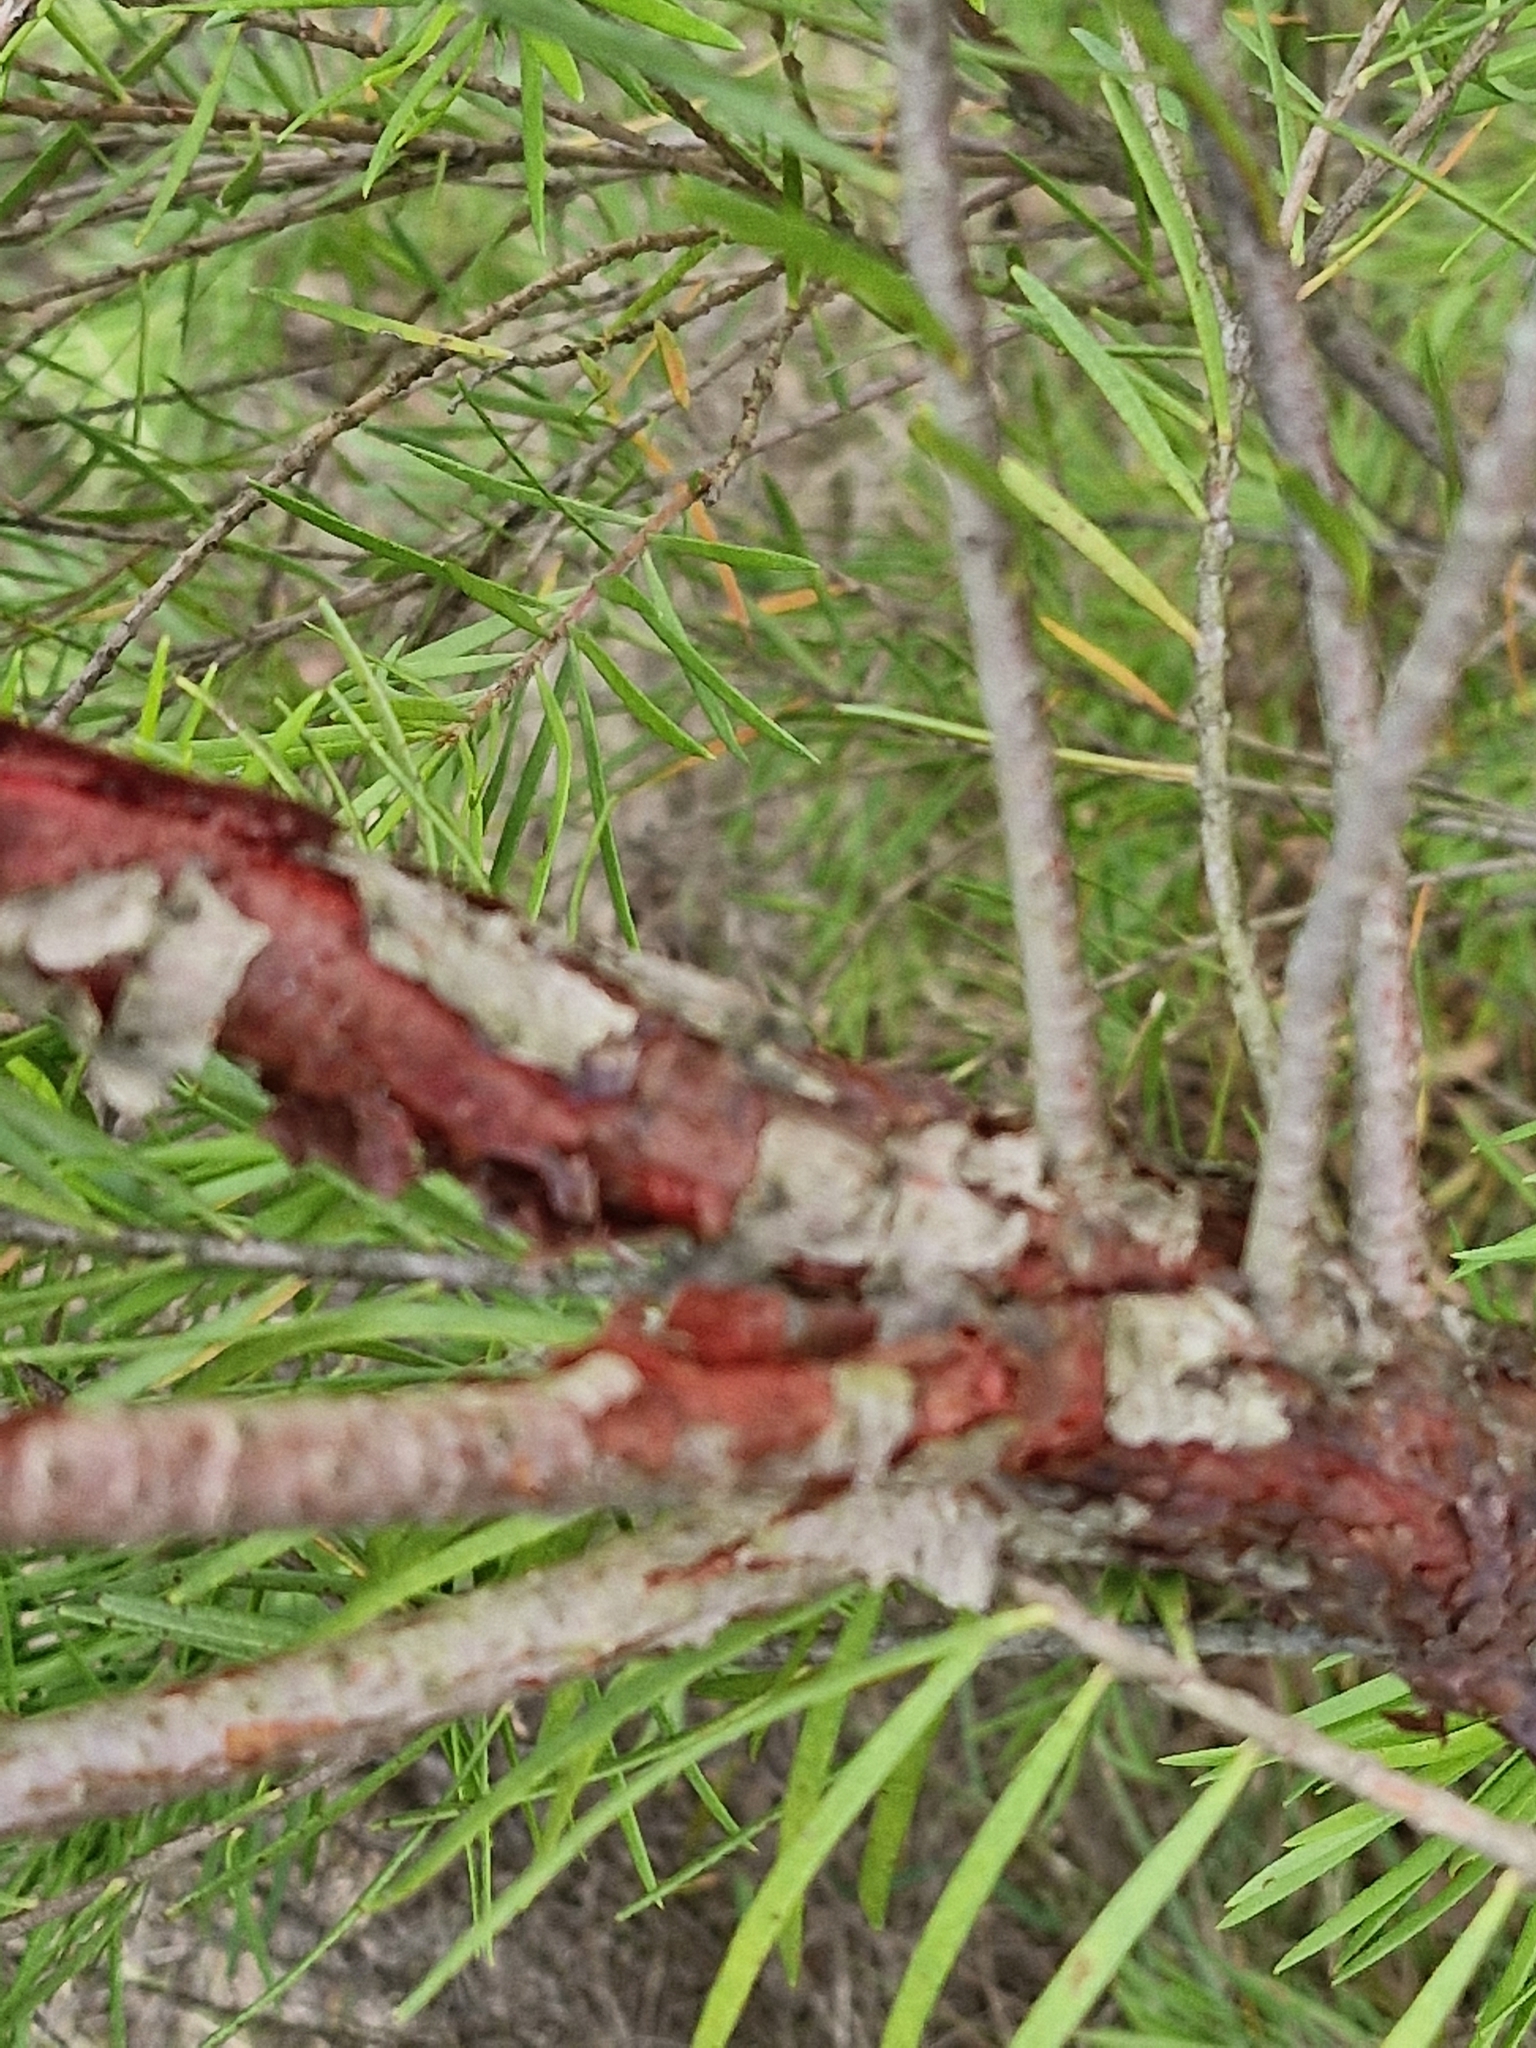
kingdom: Plantae
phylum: Tracheophyta
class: Magnoliopsida
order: Proteales
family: Proteaceae
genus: Persoonia
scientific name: Persoonia linearis
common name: Narrow-leaf geebung
